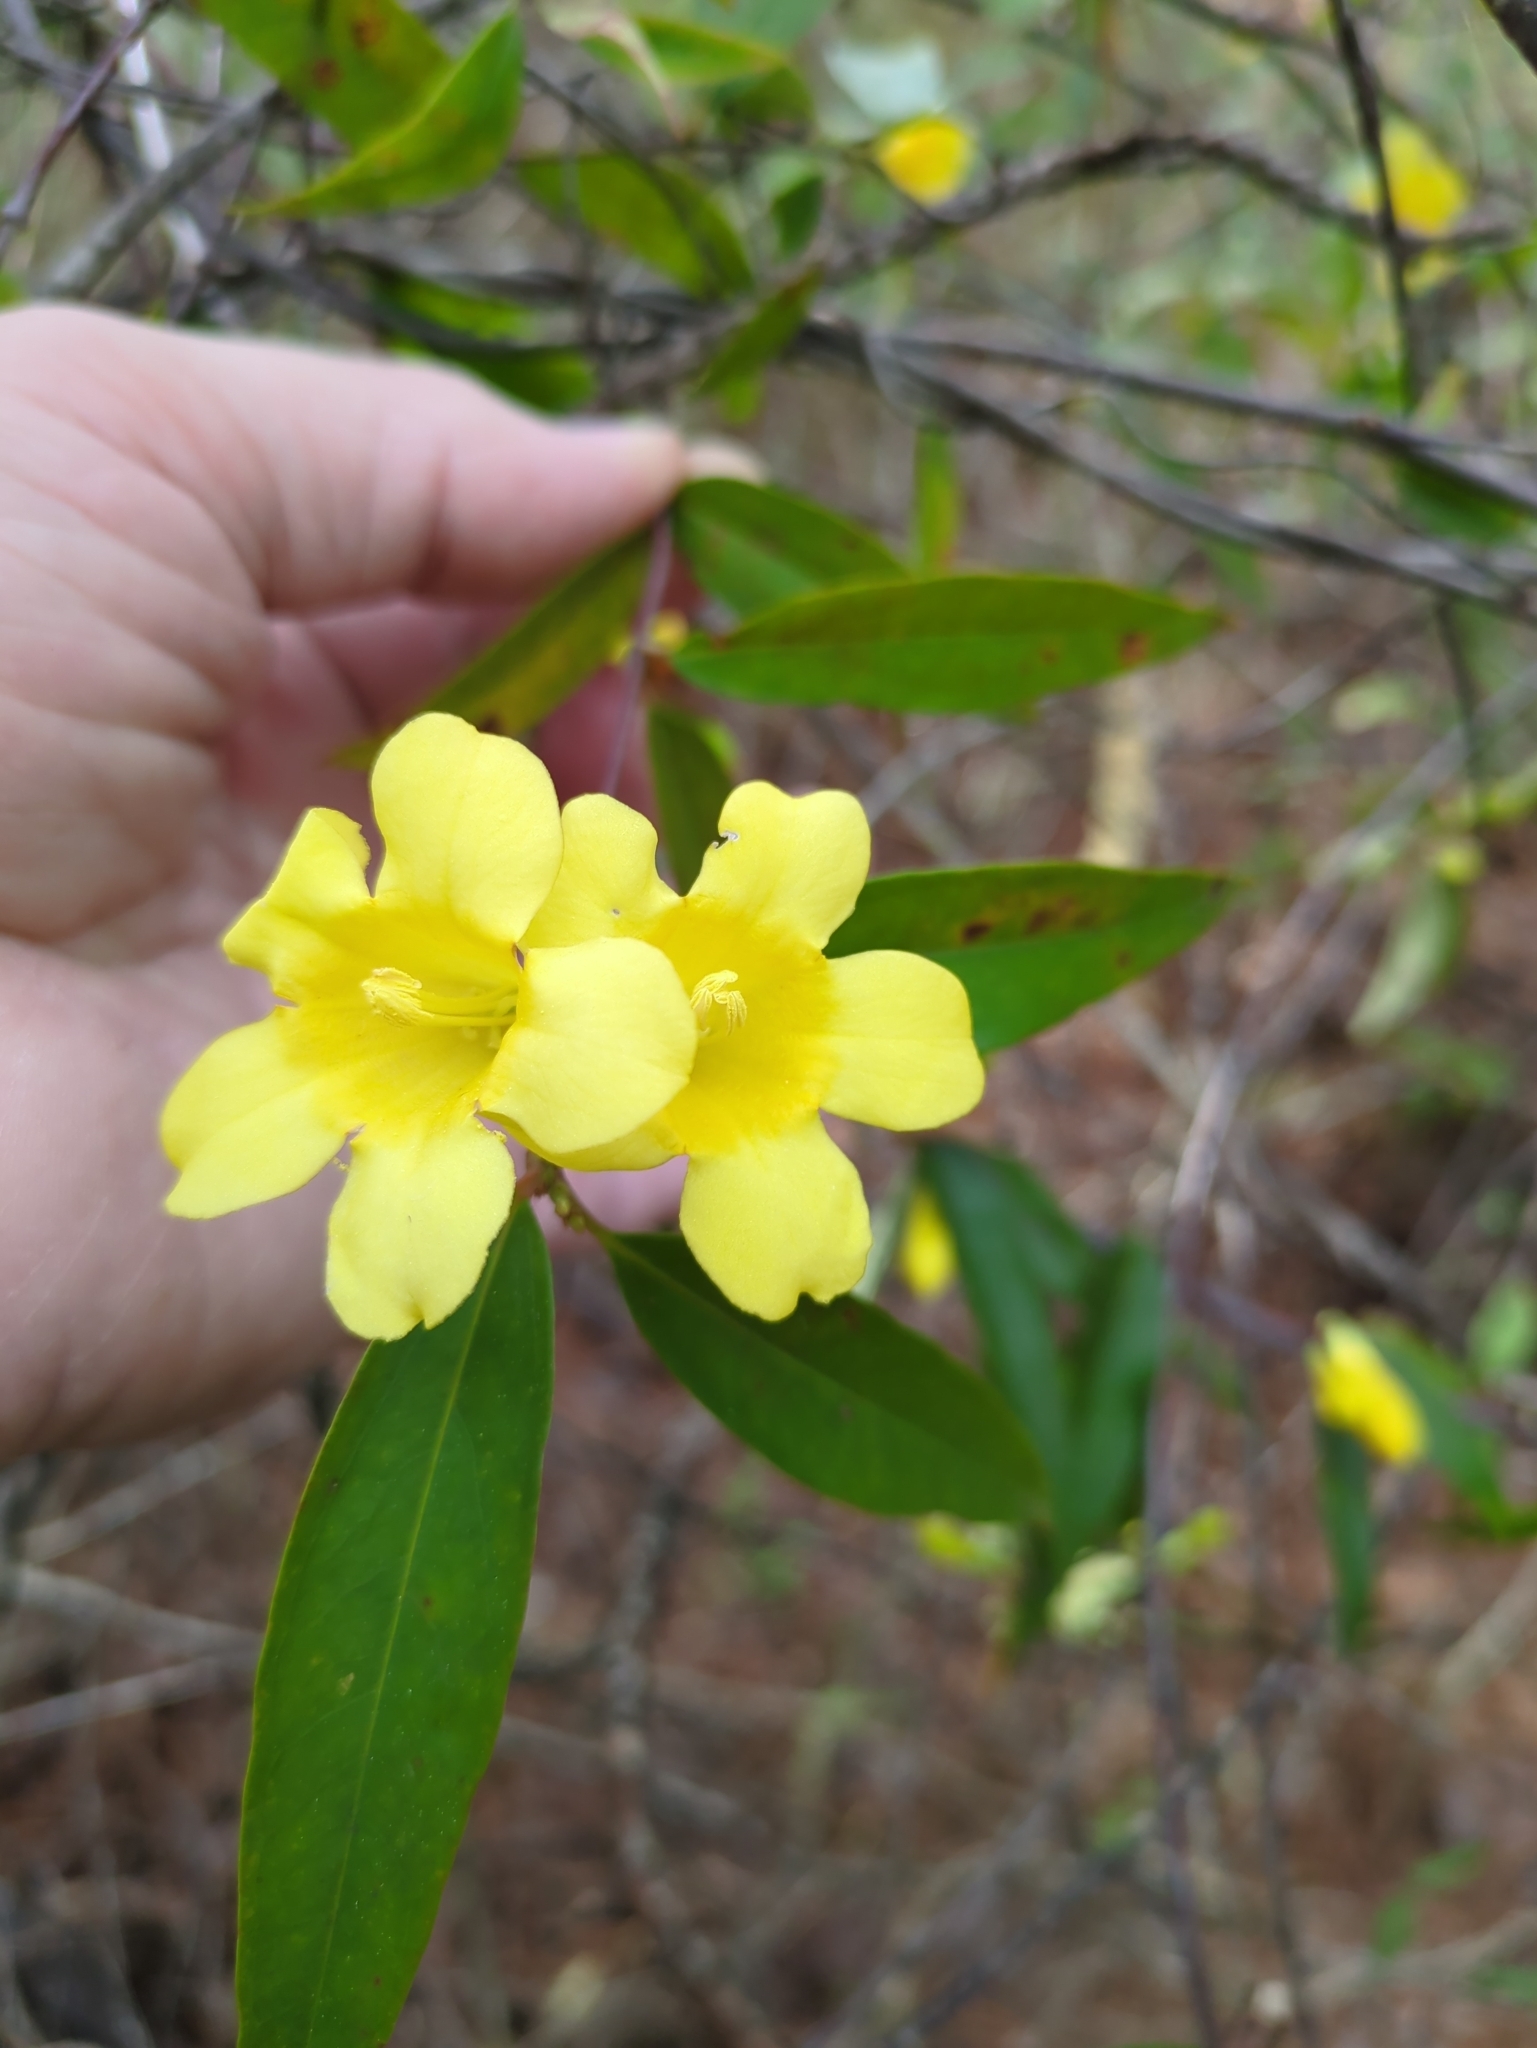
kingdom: Plantae
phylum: Tracheophyta
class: Magnoliopsida
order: Gentianales
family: Gelsemiaceae
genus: Gelsemium
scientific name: Gelsemium sempervirens
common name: Carolina-jasmine
